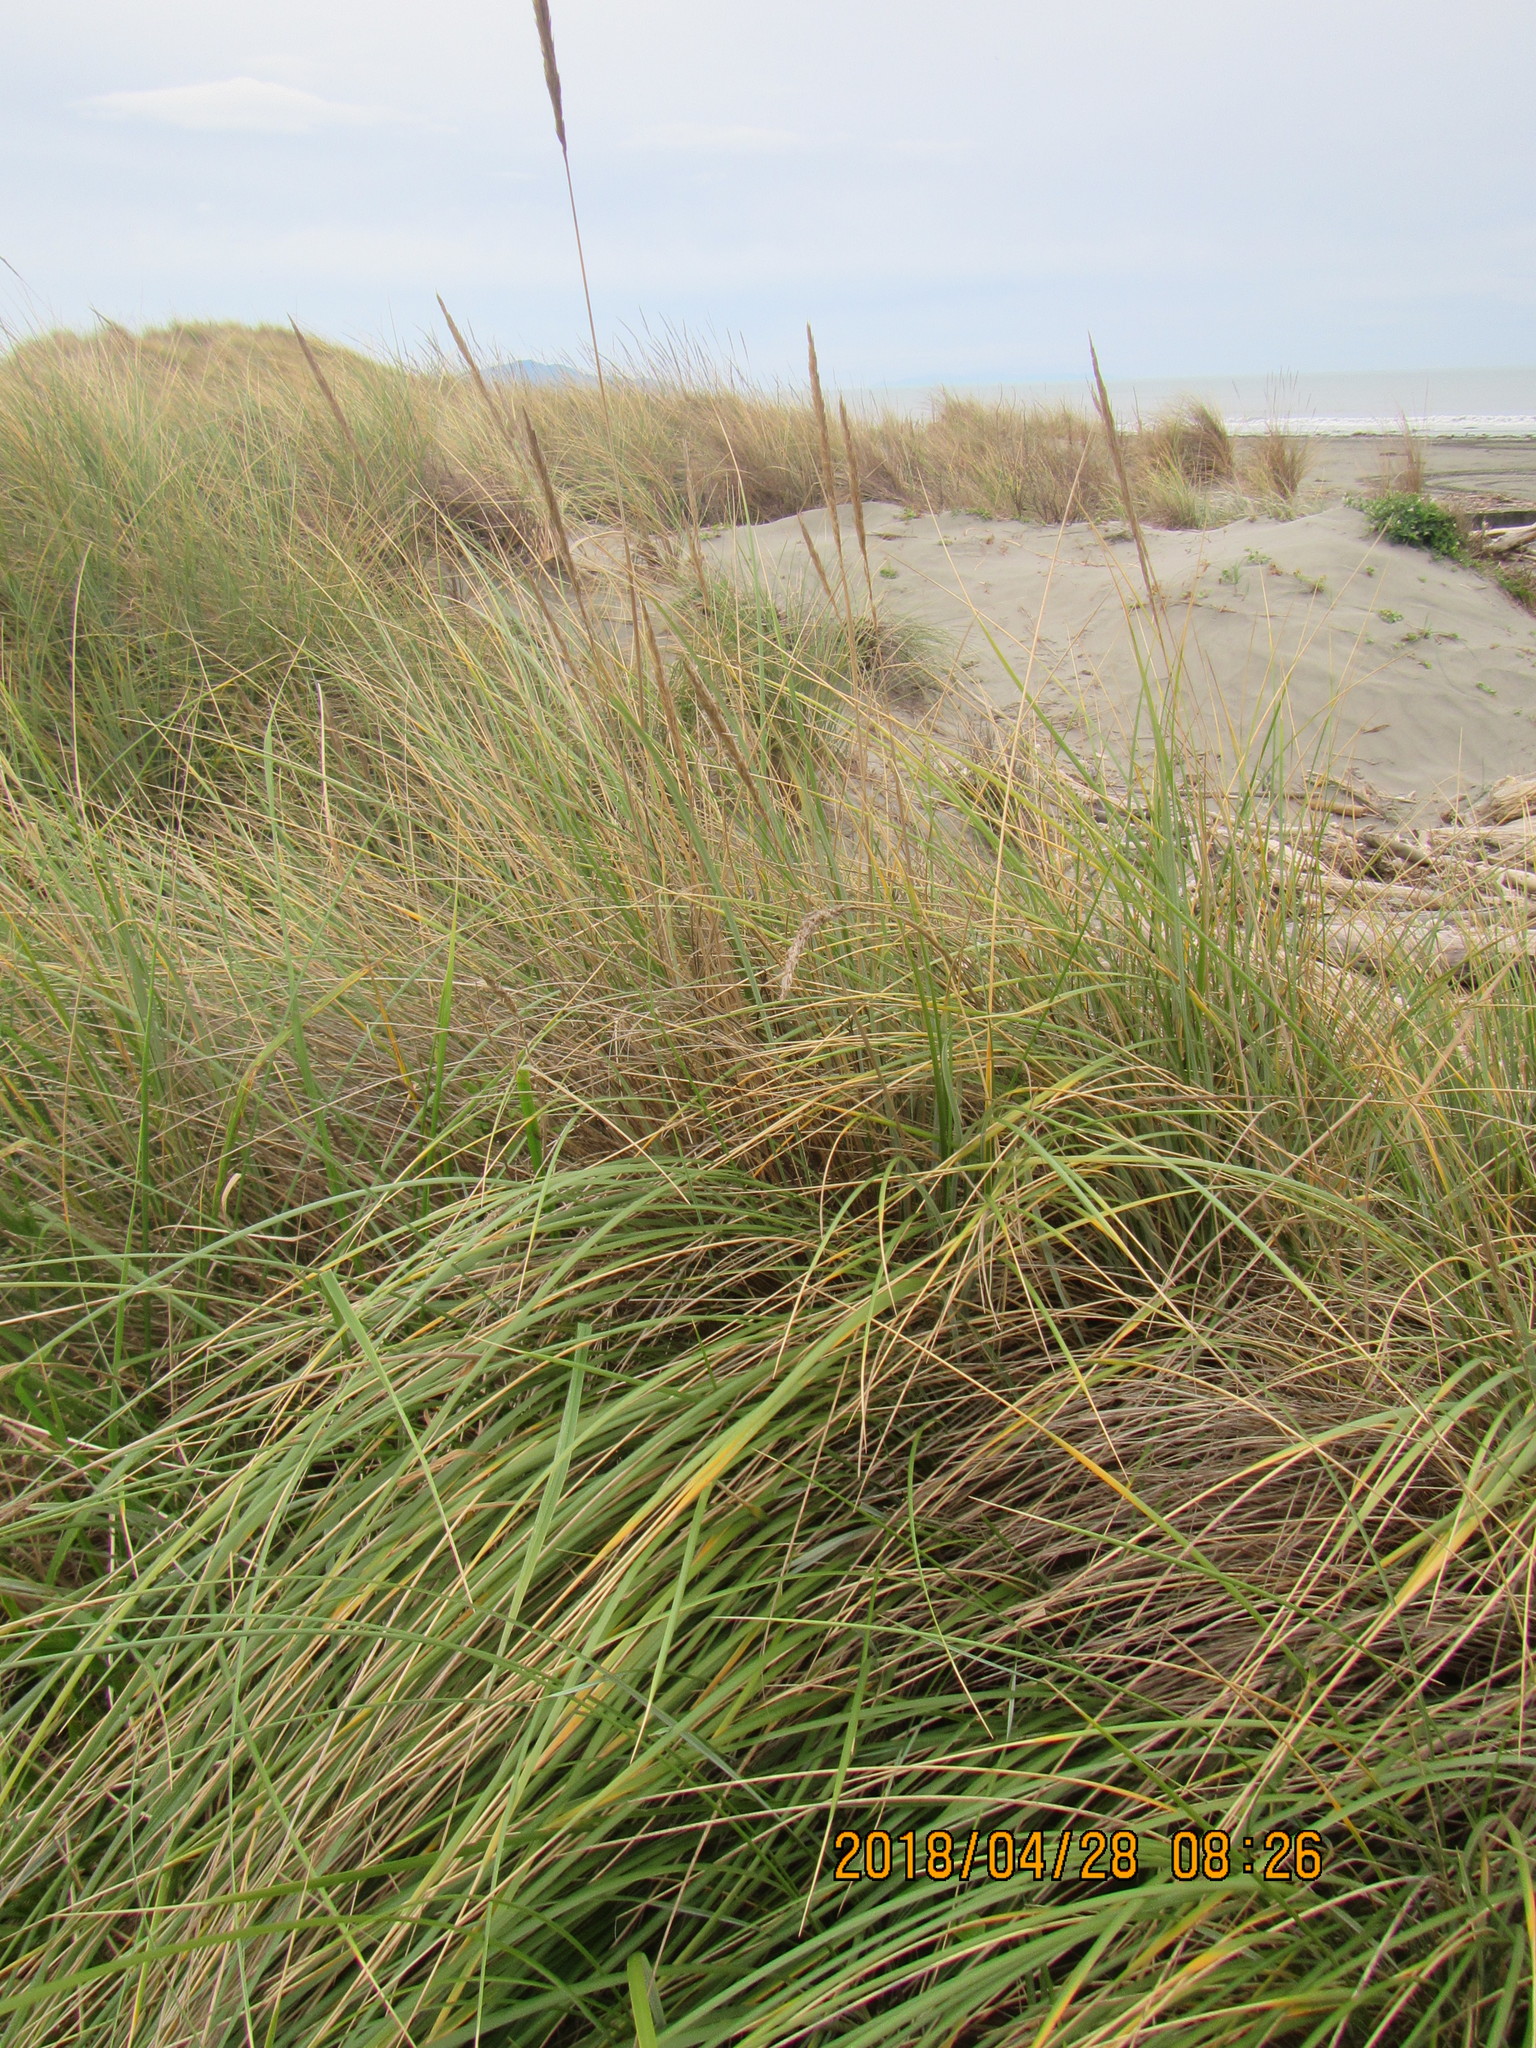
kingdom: Plantae
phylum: Tracheophyta
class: Liliopsida
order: Poales
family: Poaceae
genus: Calamagrostis
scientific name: Calamagrostis arenaria
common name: European beachgrass
